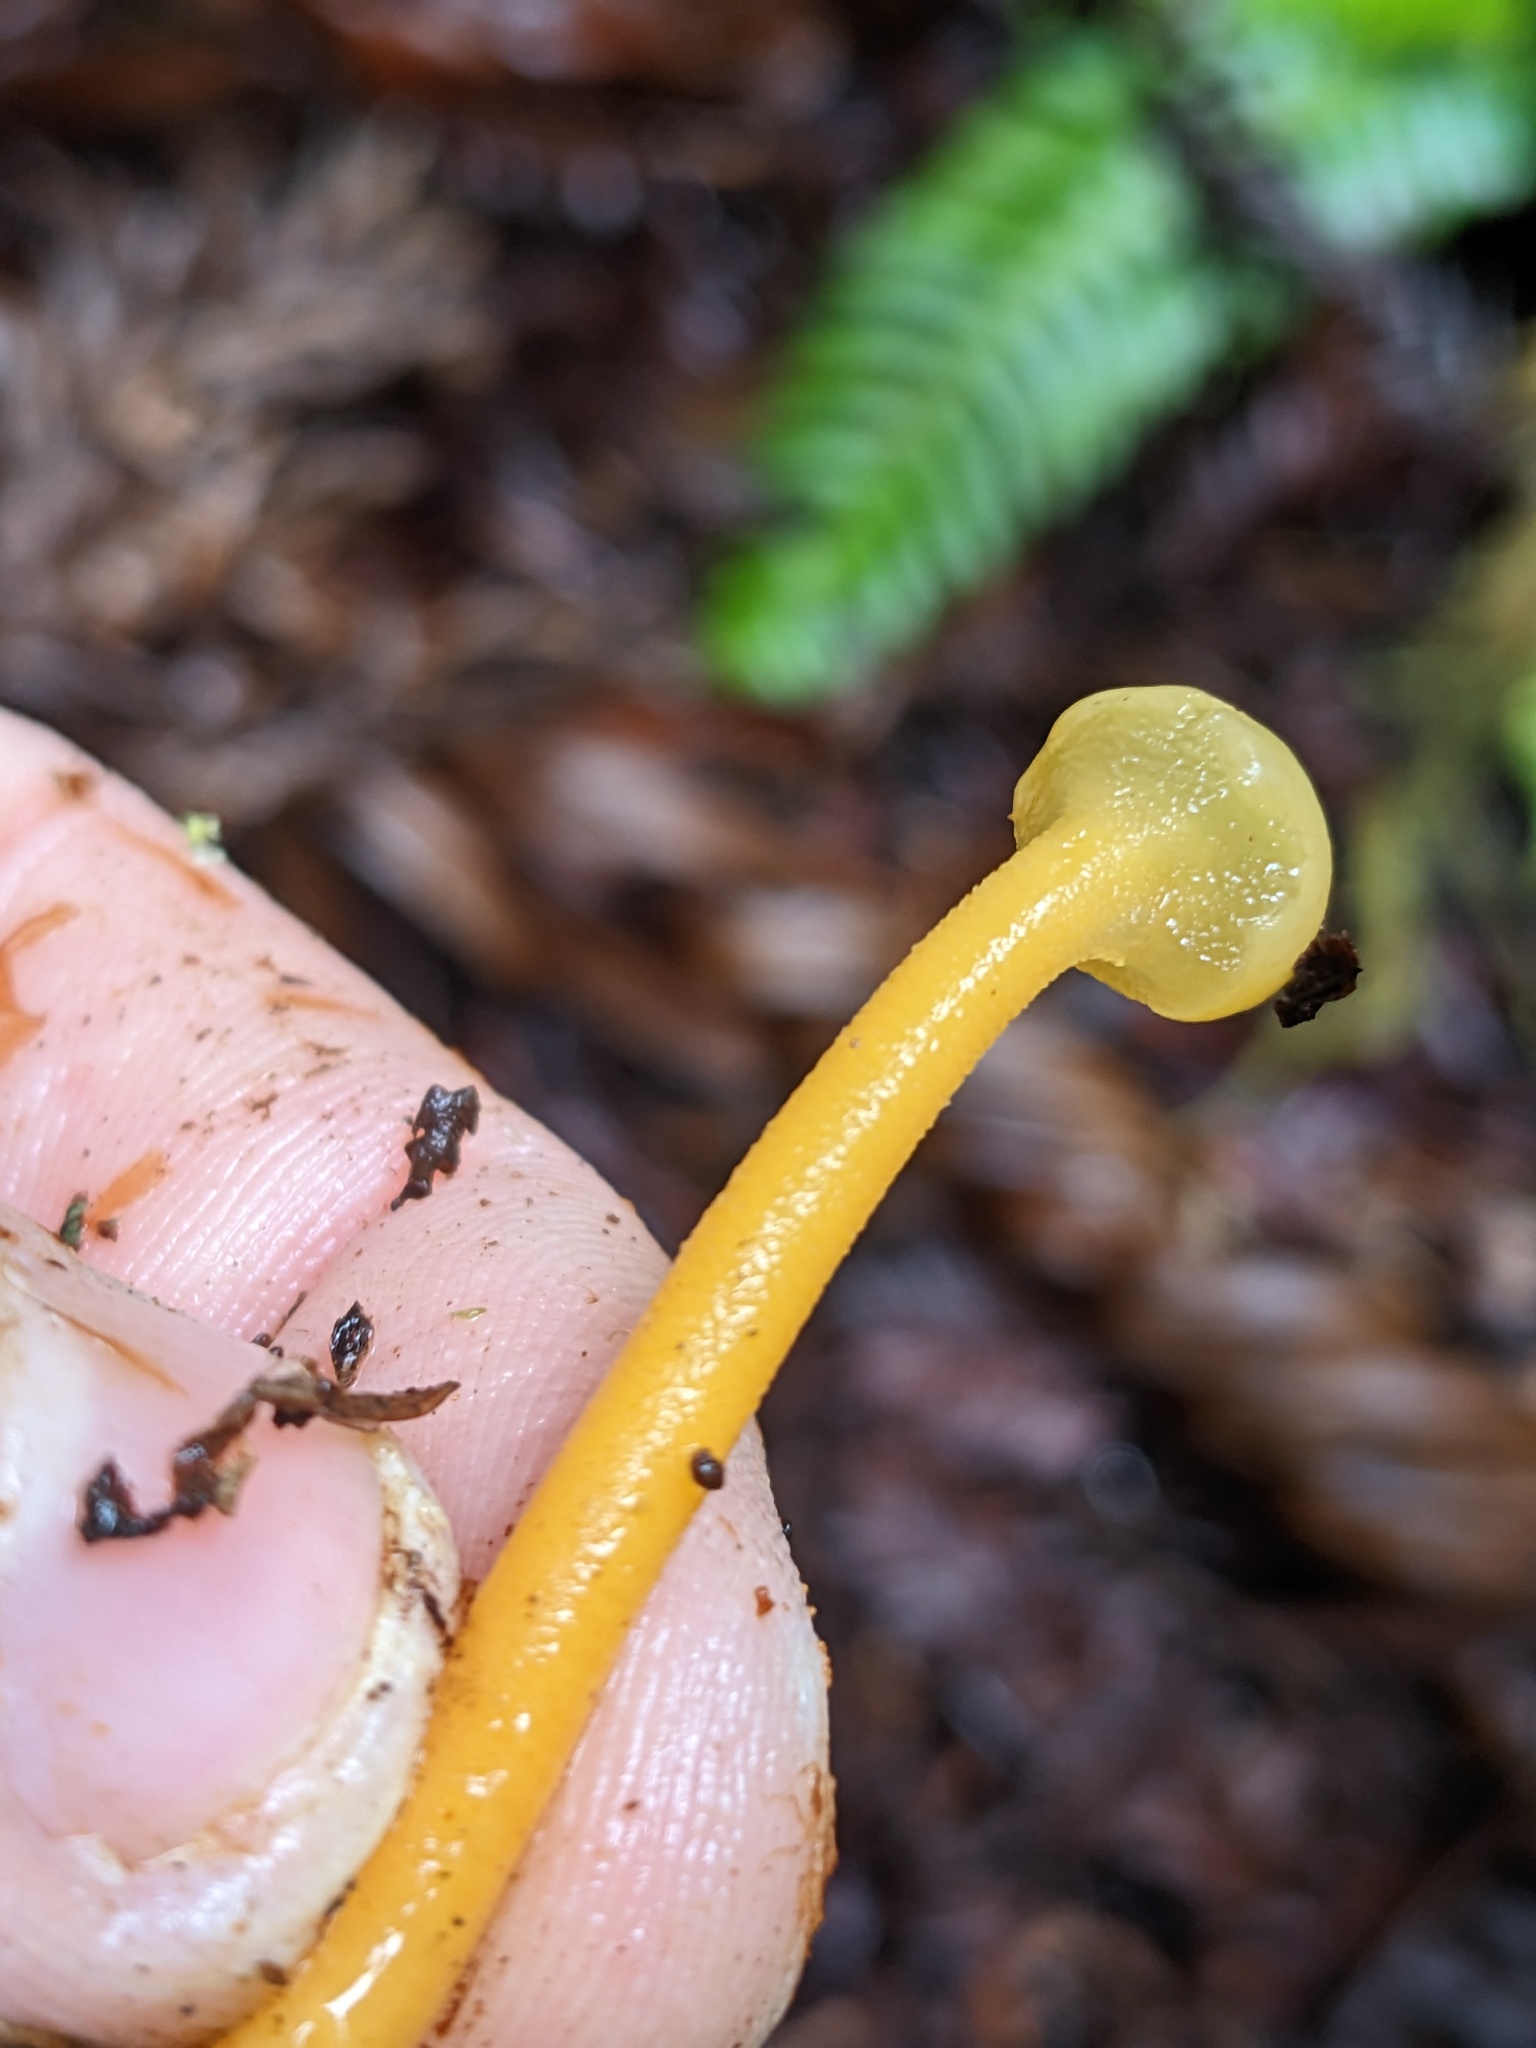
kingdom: Fungi
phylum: Ascomycota
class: Leotiomycetes
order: Leotiales
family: Leotiaceae
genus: Leotia
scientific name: Leotia lubrica
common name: Jellybaby
